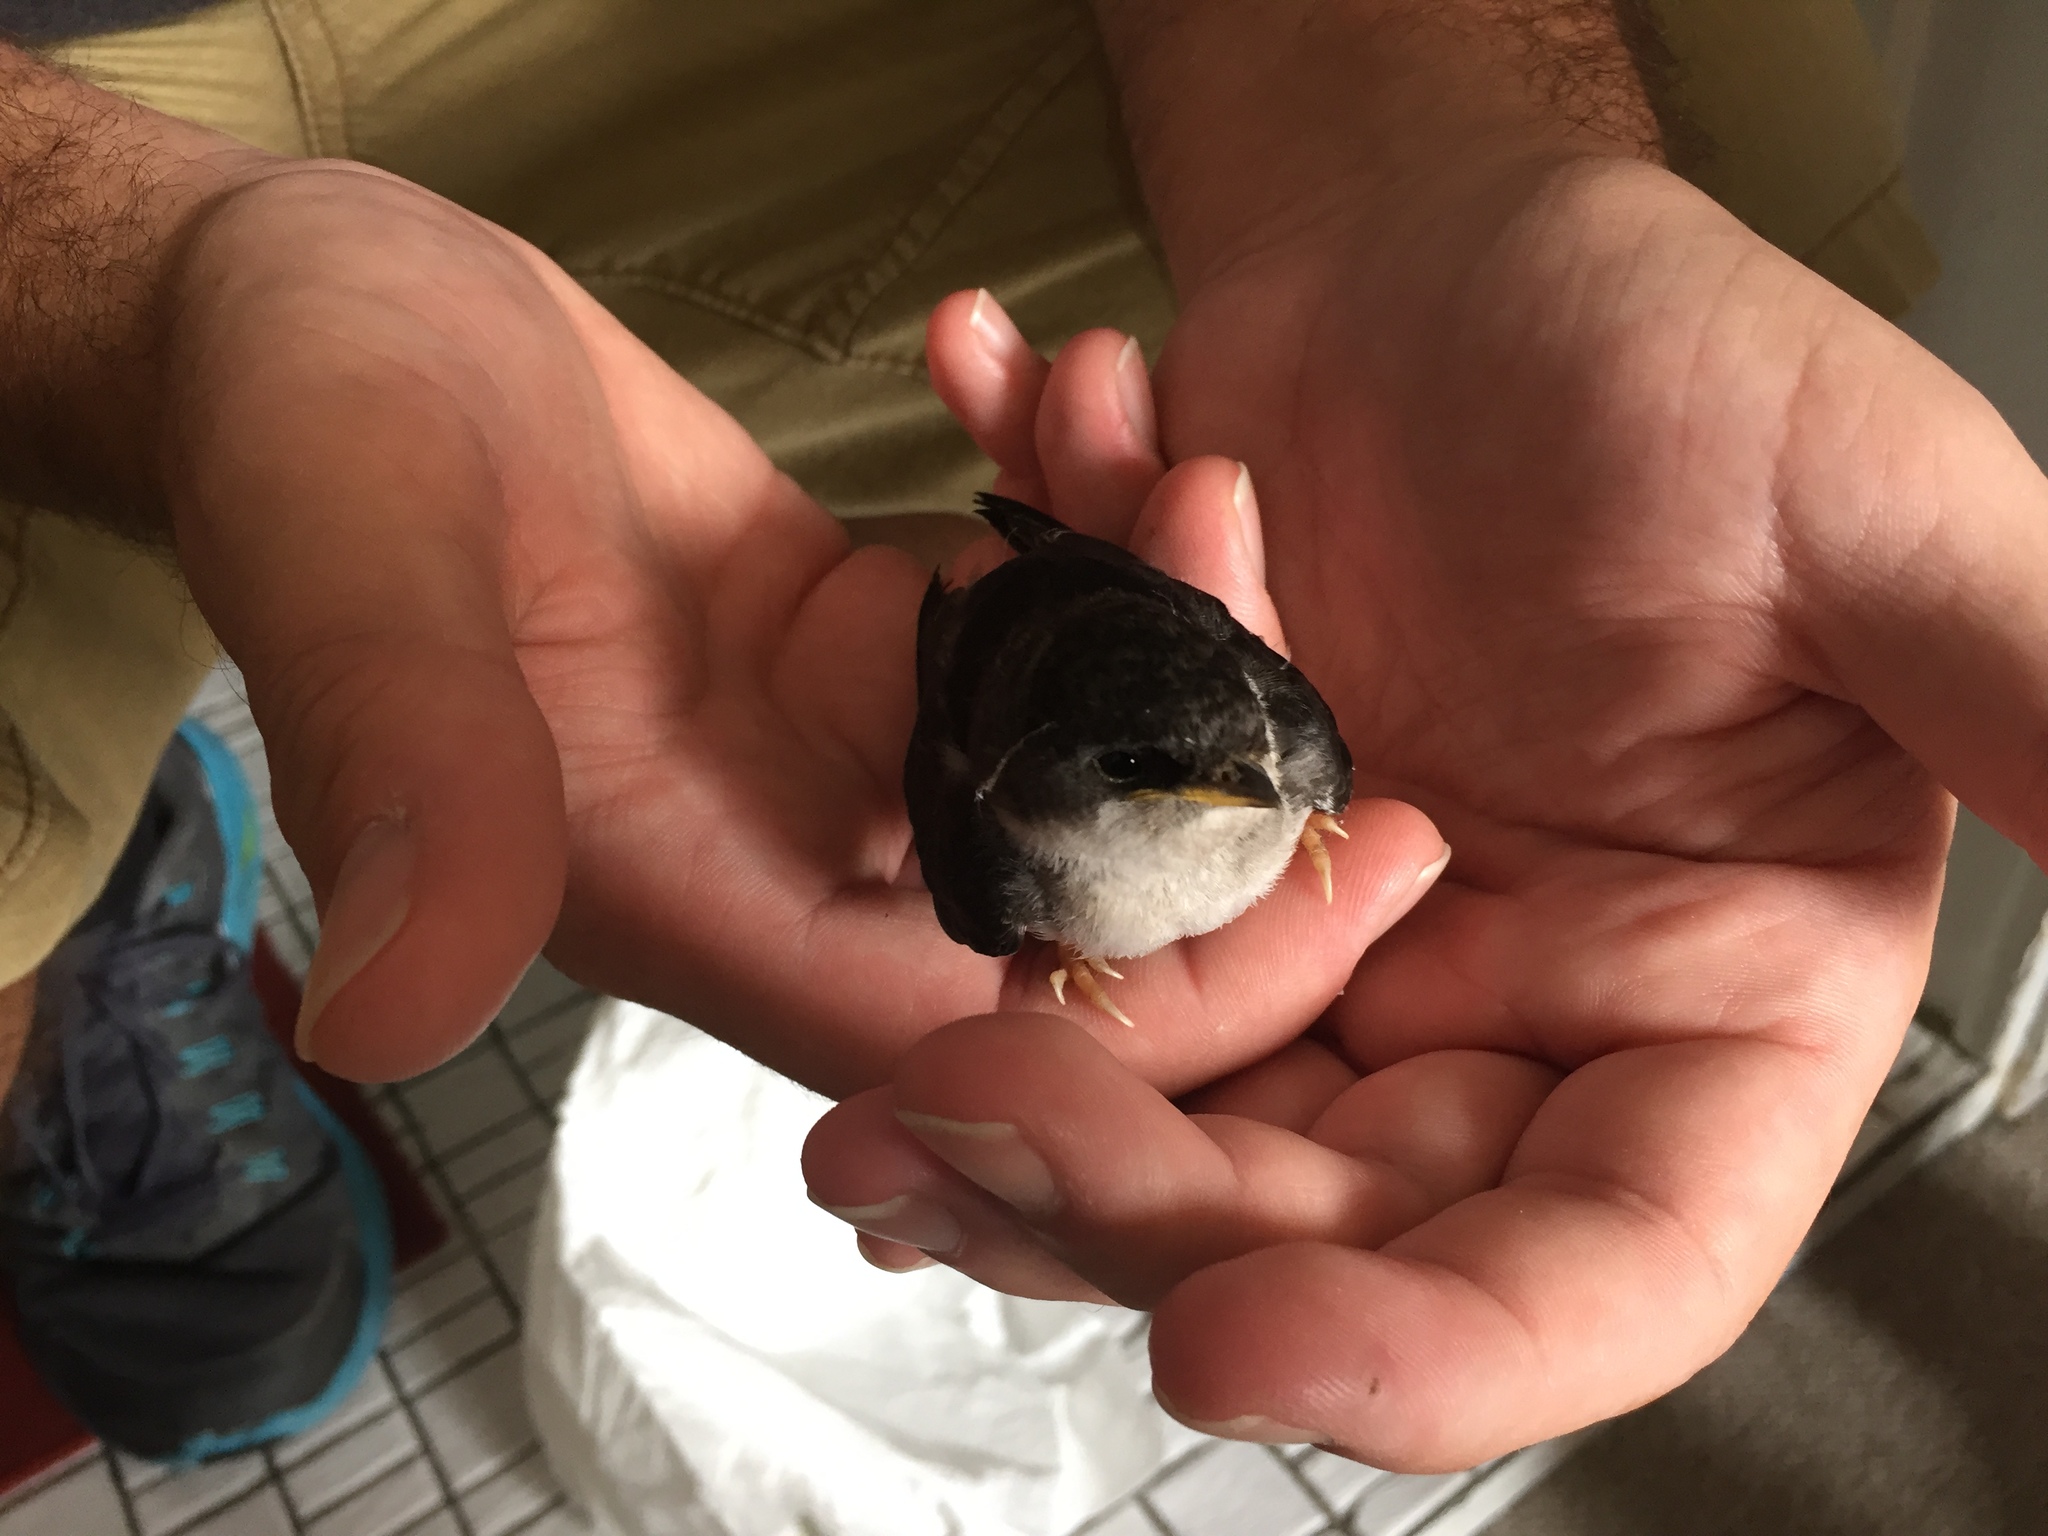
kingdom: Animalia
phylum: Chordata
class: Aves
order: Passeriformes
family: Hirundinidae
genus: Delichon
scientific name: Delichon urbicum
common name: Common house martin
